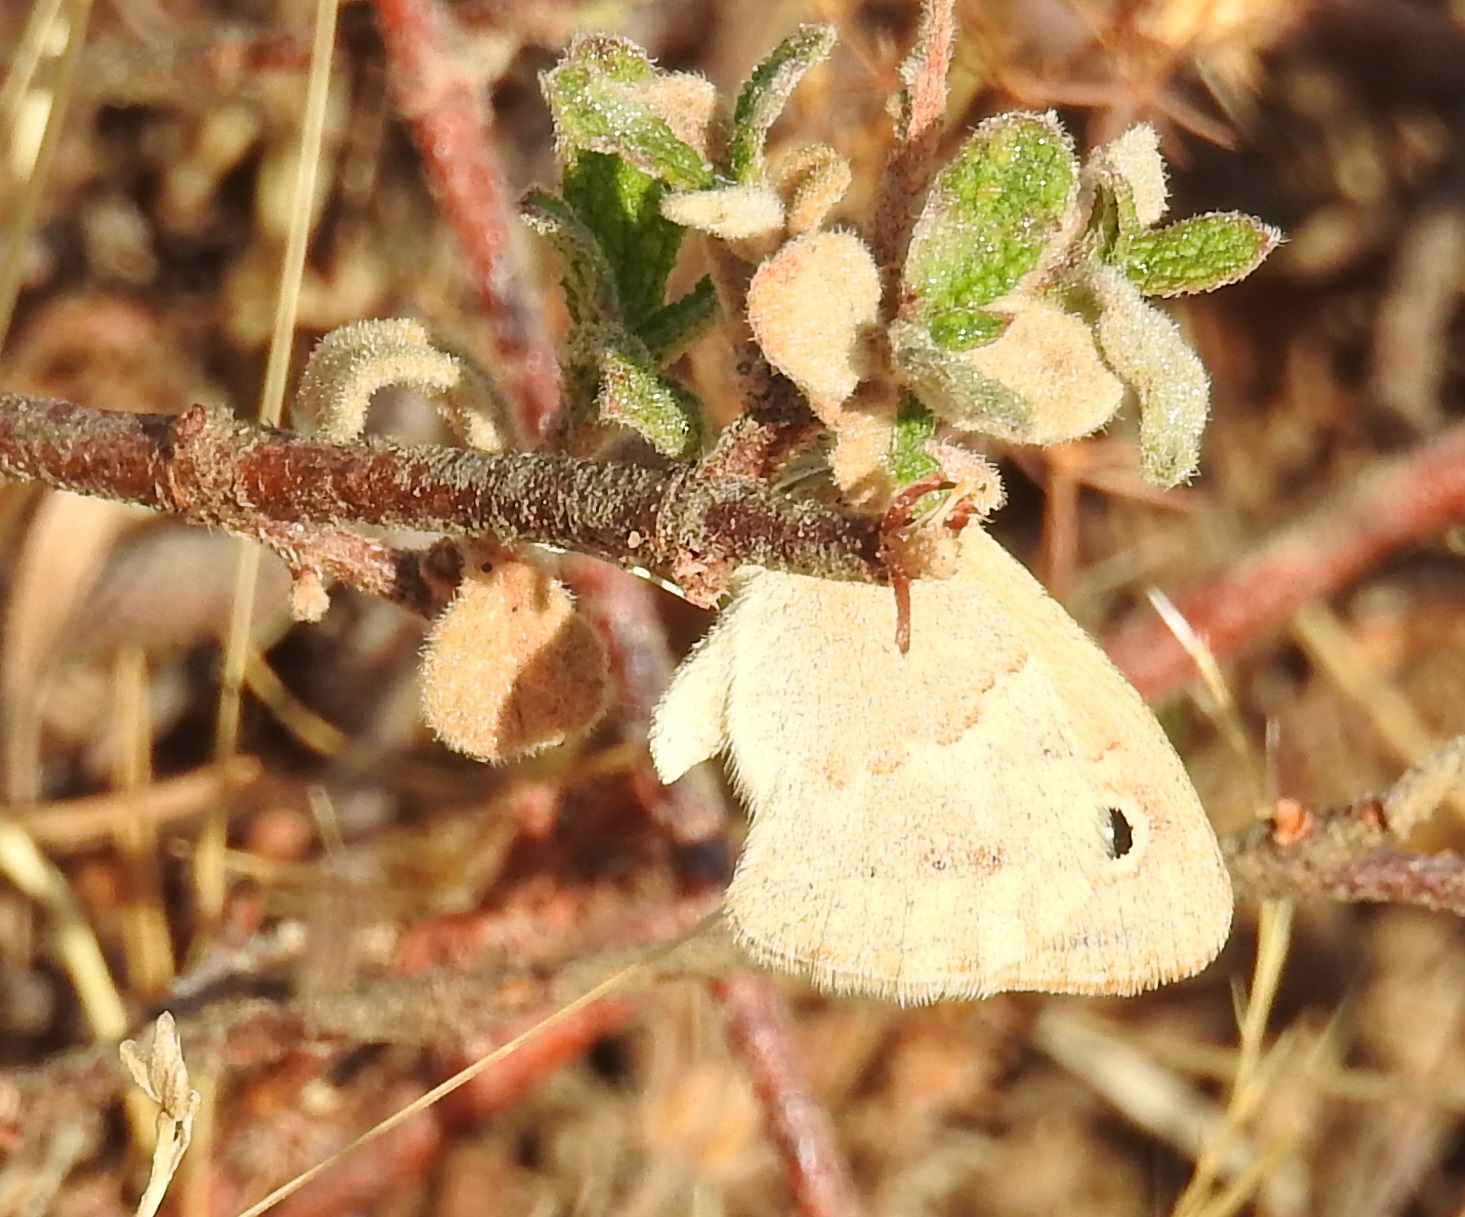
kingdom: Animalia
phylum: Arthropoda
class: Insecta
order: Lepidoptera
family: Nymphalidae
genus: Coenonympha
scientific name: Coenonympha pamphilus
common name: Small heath
